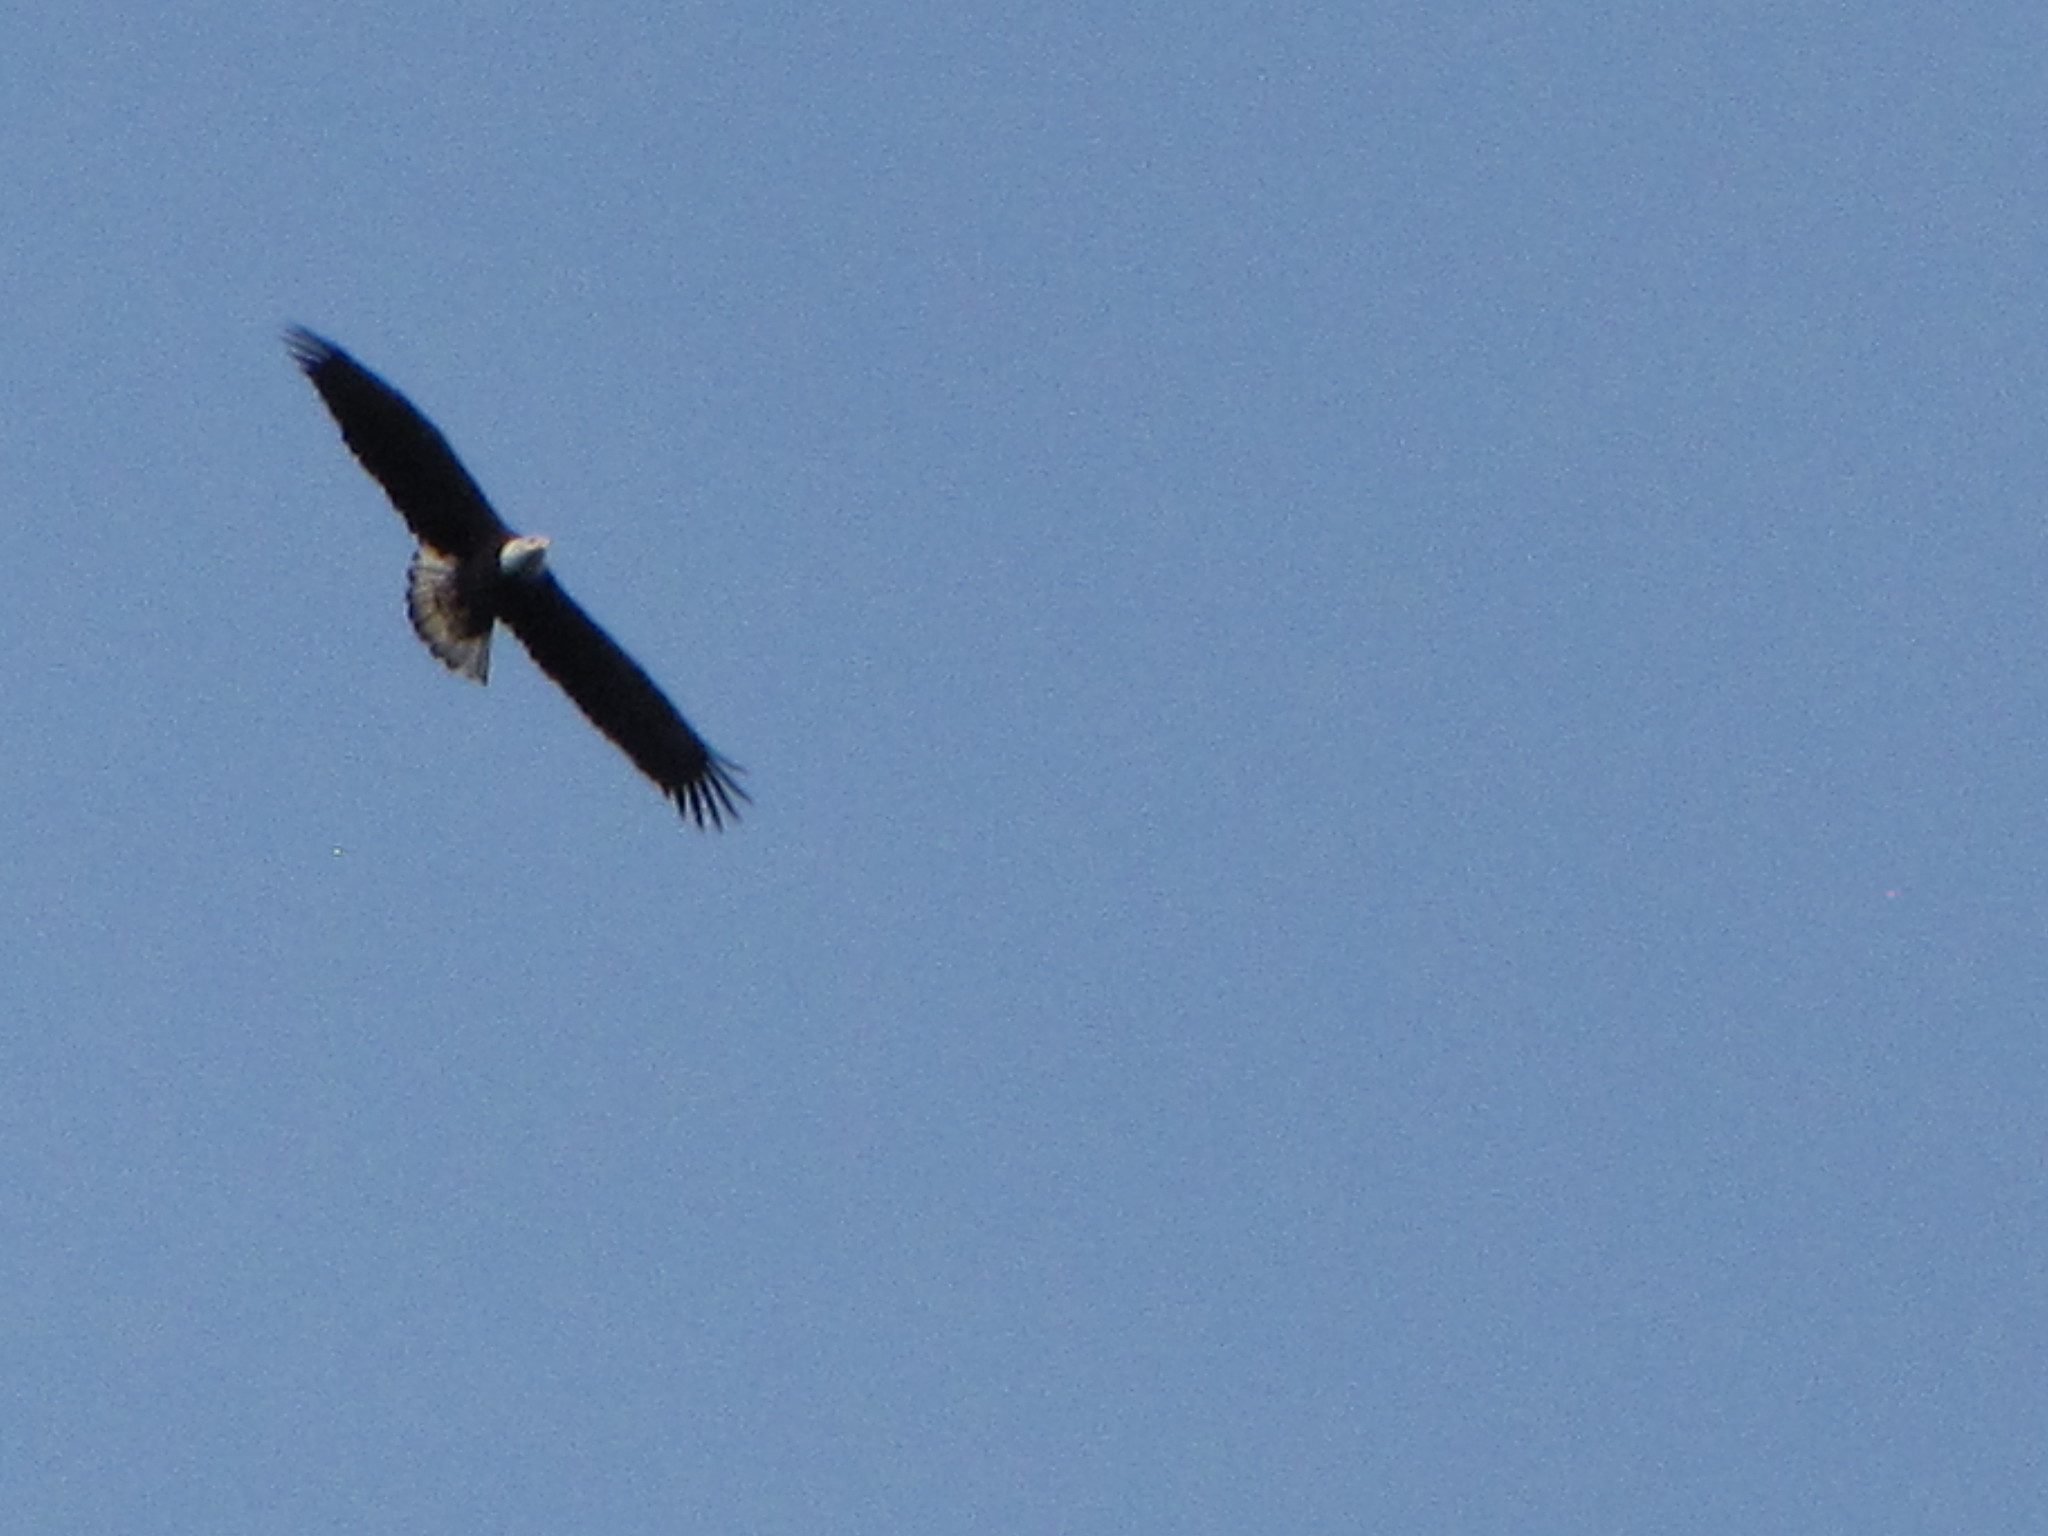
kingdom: Animalia
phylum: Chordata
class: Aves
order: Accipitriformes
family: Accipitridae
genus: Haliaeetus
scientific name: Haliaeetus leucocephalus
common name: Bald eagle
